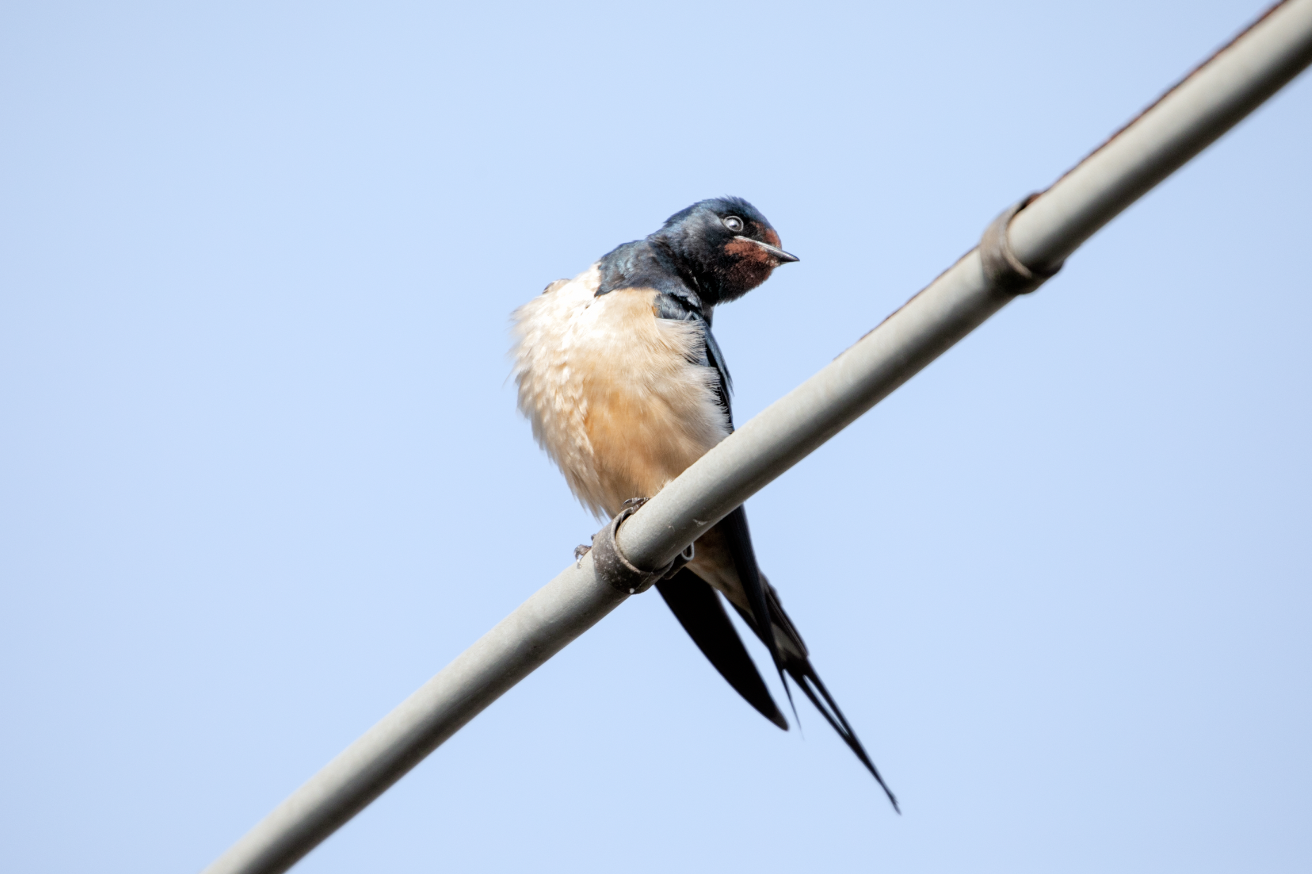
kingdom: Animalia
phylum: Chordata
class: Aves
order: Passeriformes
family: Hirundinidae
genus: Hirundo
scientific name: Hirundo rustica
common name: Barn swallow
